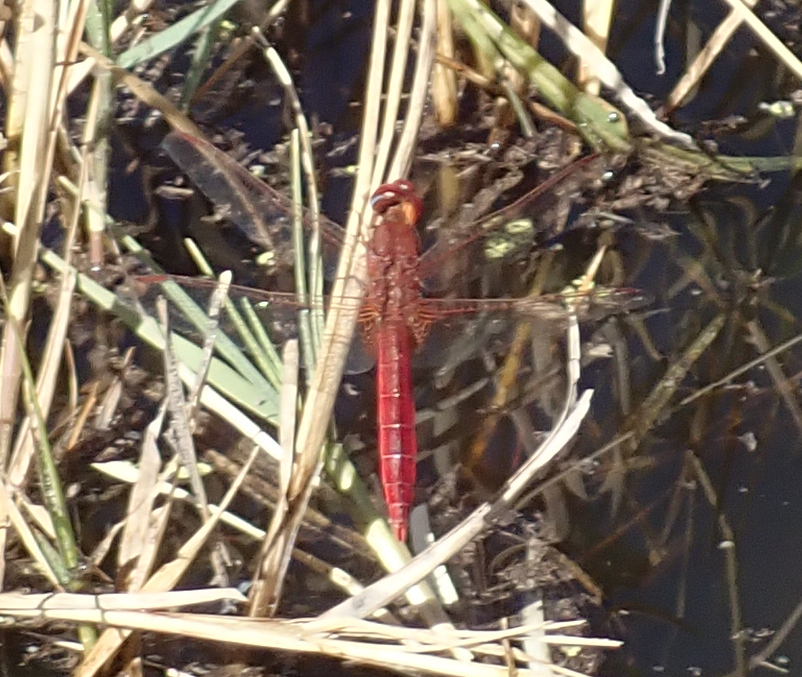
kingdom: Animalia
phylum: Arthropoda
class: Insecta
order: Odonata
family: Libellulidae
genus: Crocothemis
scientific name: Crocothemis erythraea
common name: Scarlet dragonfly
